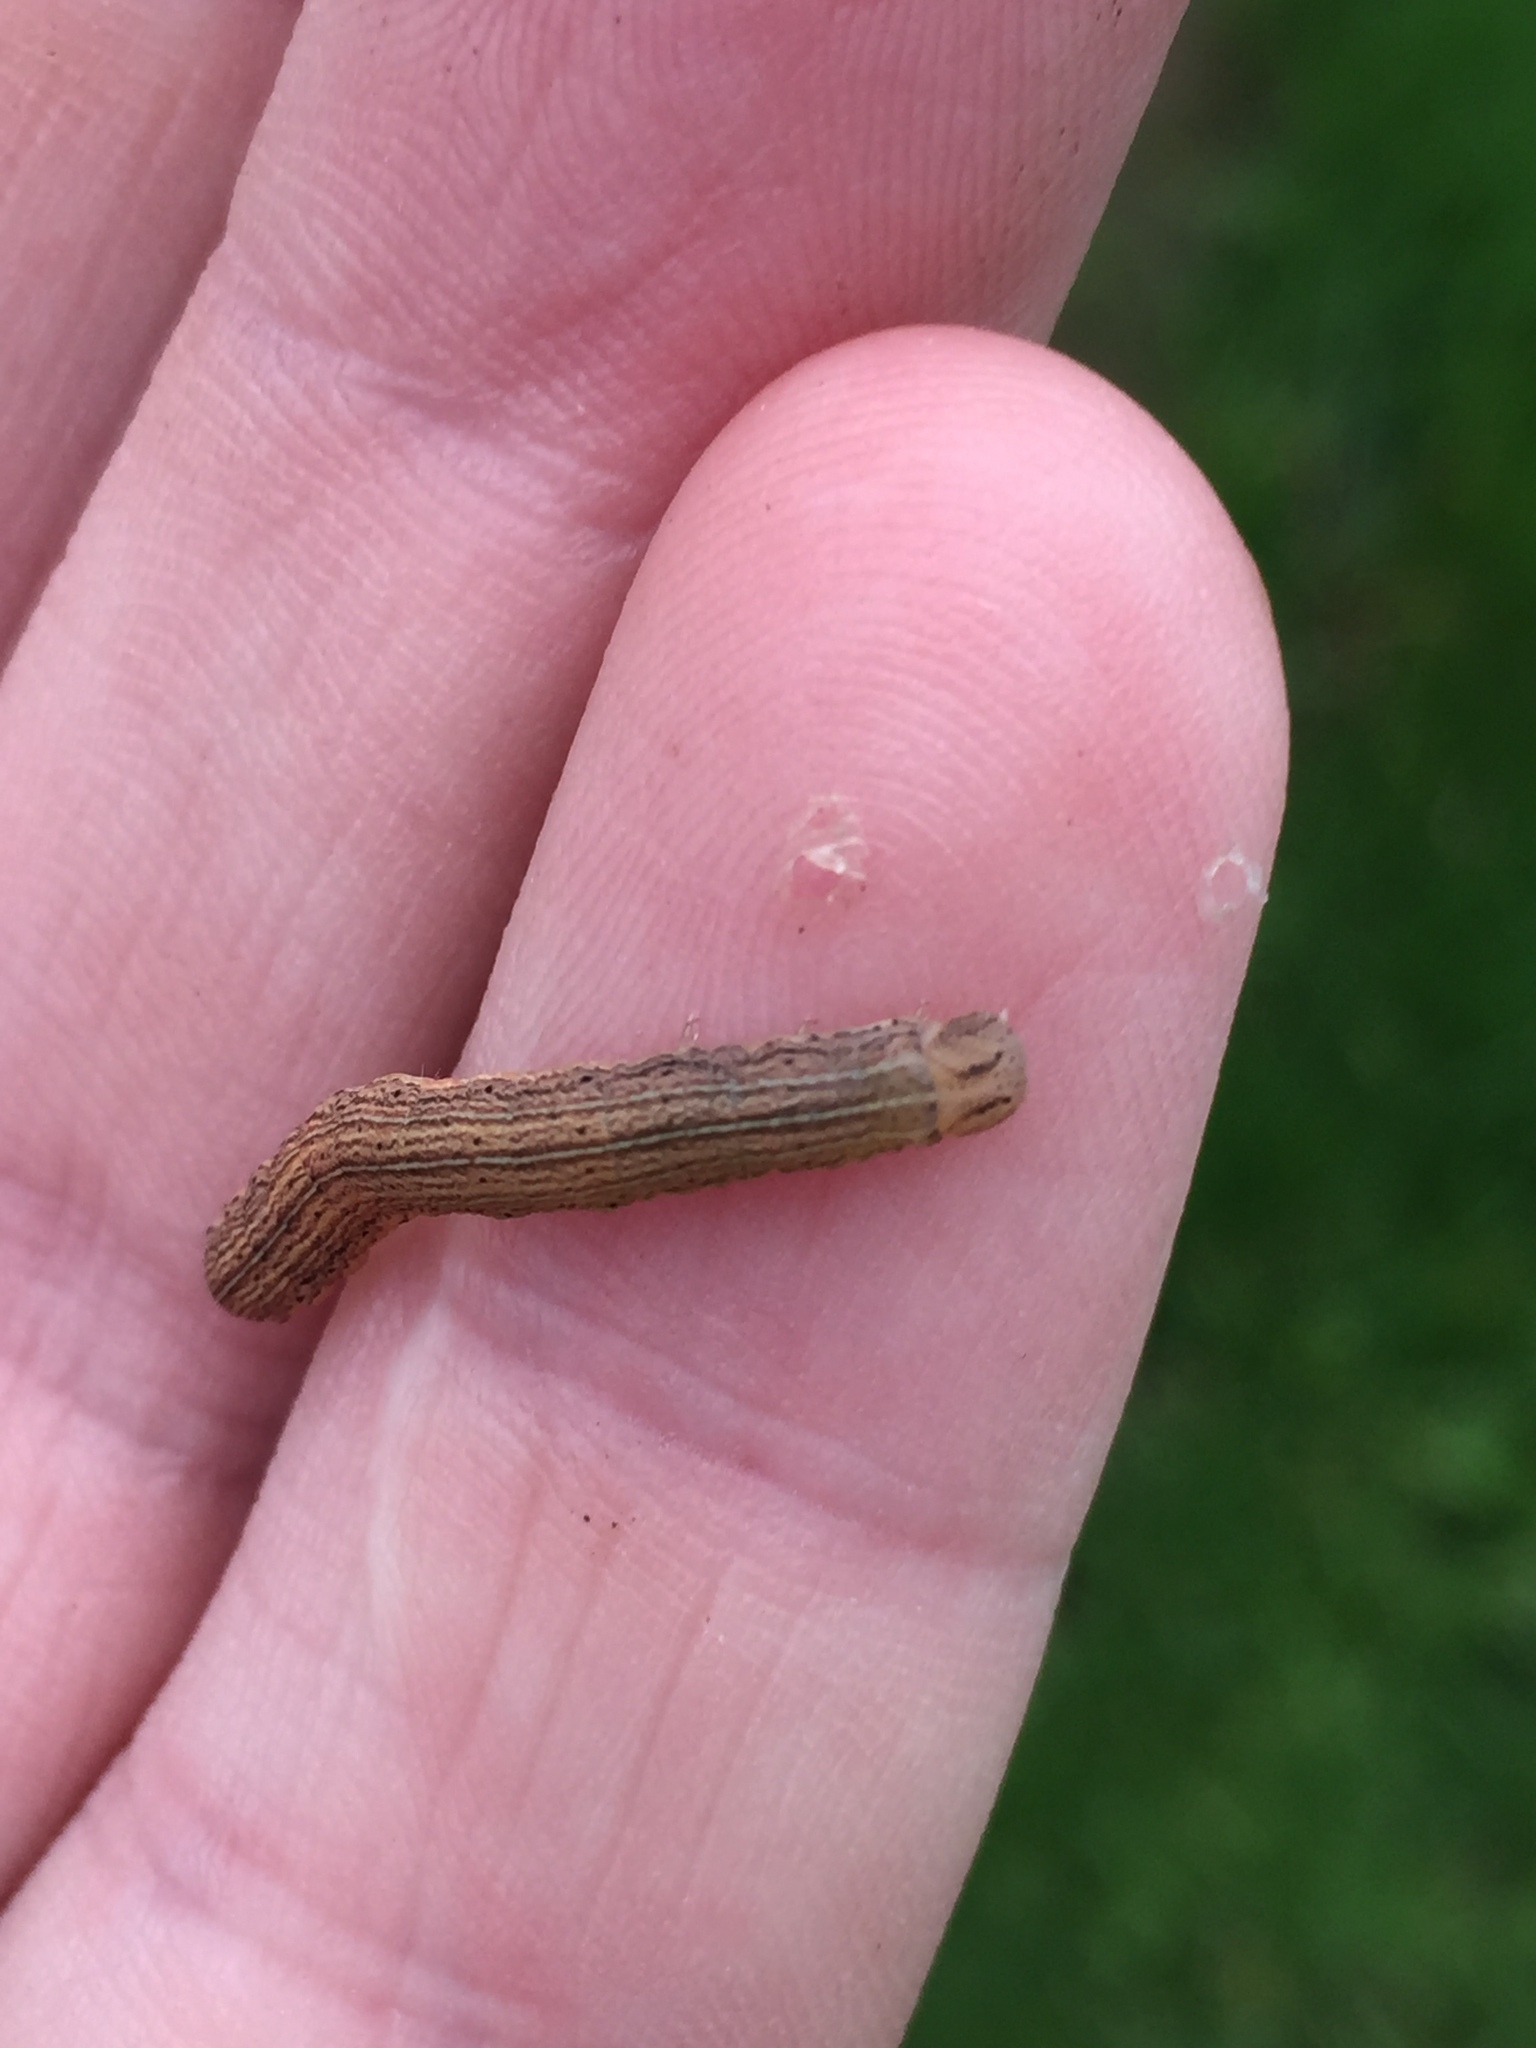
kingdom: Animalia
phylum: Arthropoda
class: Insecta
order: Lepidoptera
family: Noctuidae
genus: Ichneutica
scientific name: Ichneutica
